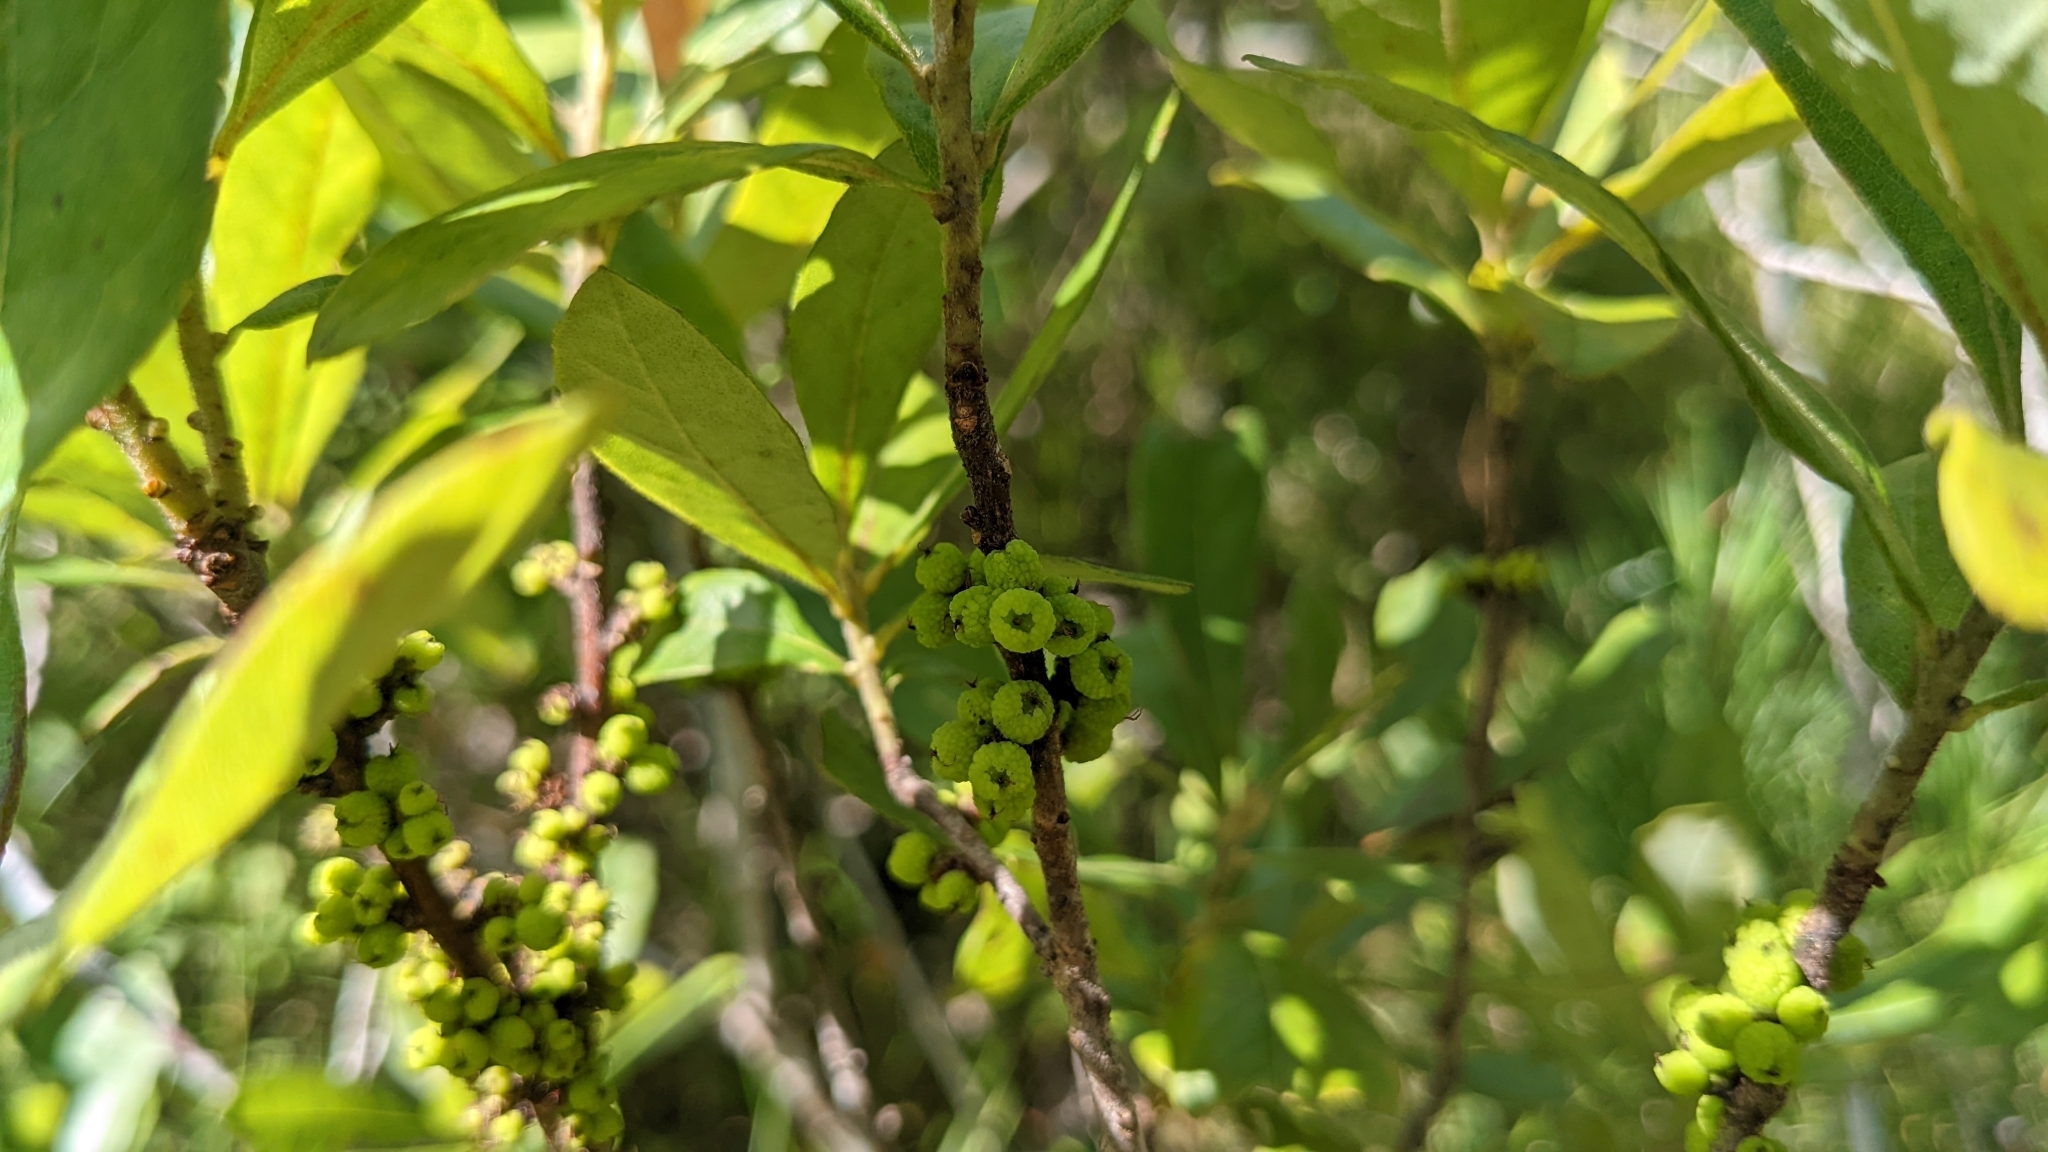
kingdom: Plantae
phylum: Tracheophyta
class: Magnoliopsida
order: Fagales
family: Myricaceae
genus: Morella
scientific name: Morella caroliniensis
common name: Evergreen bayberry
